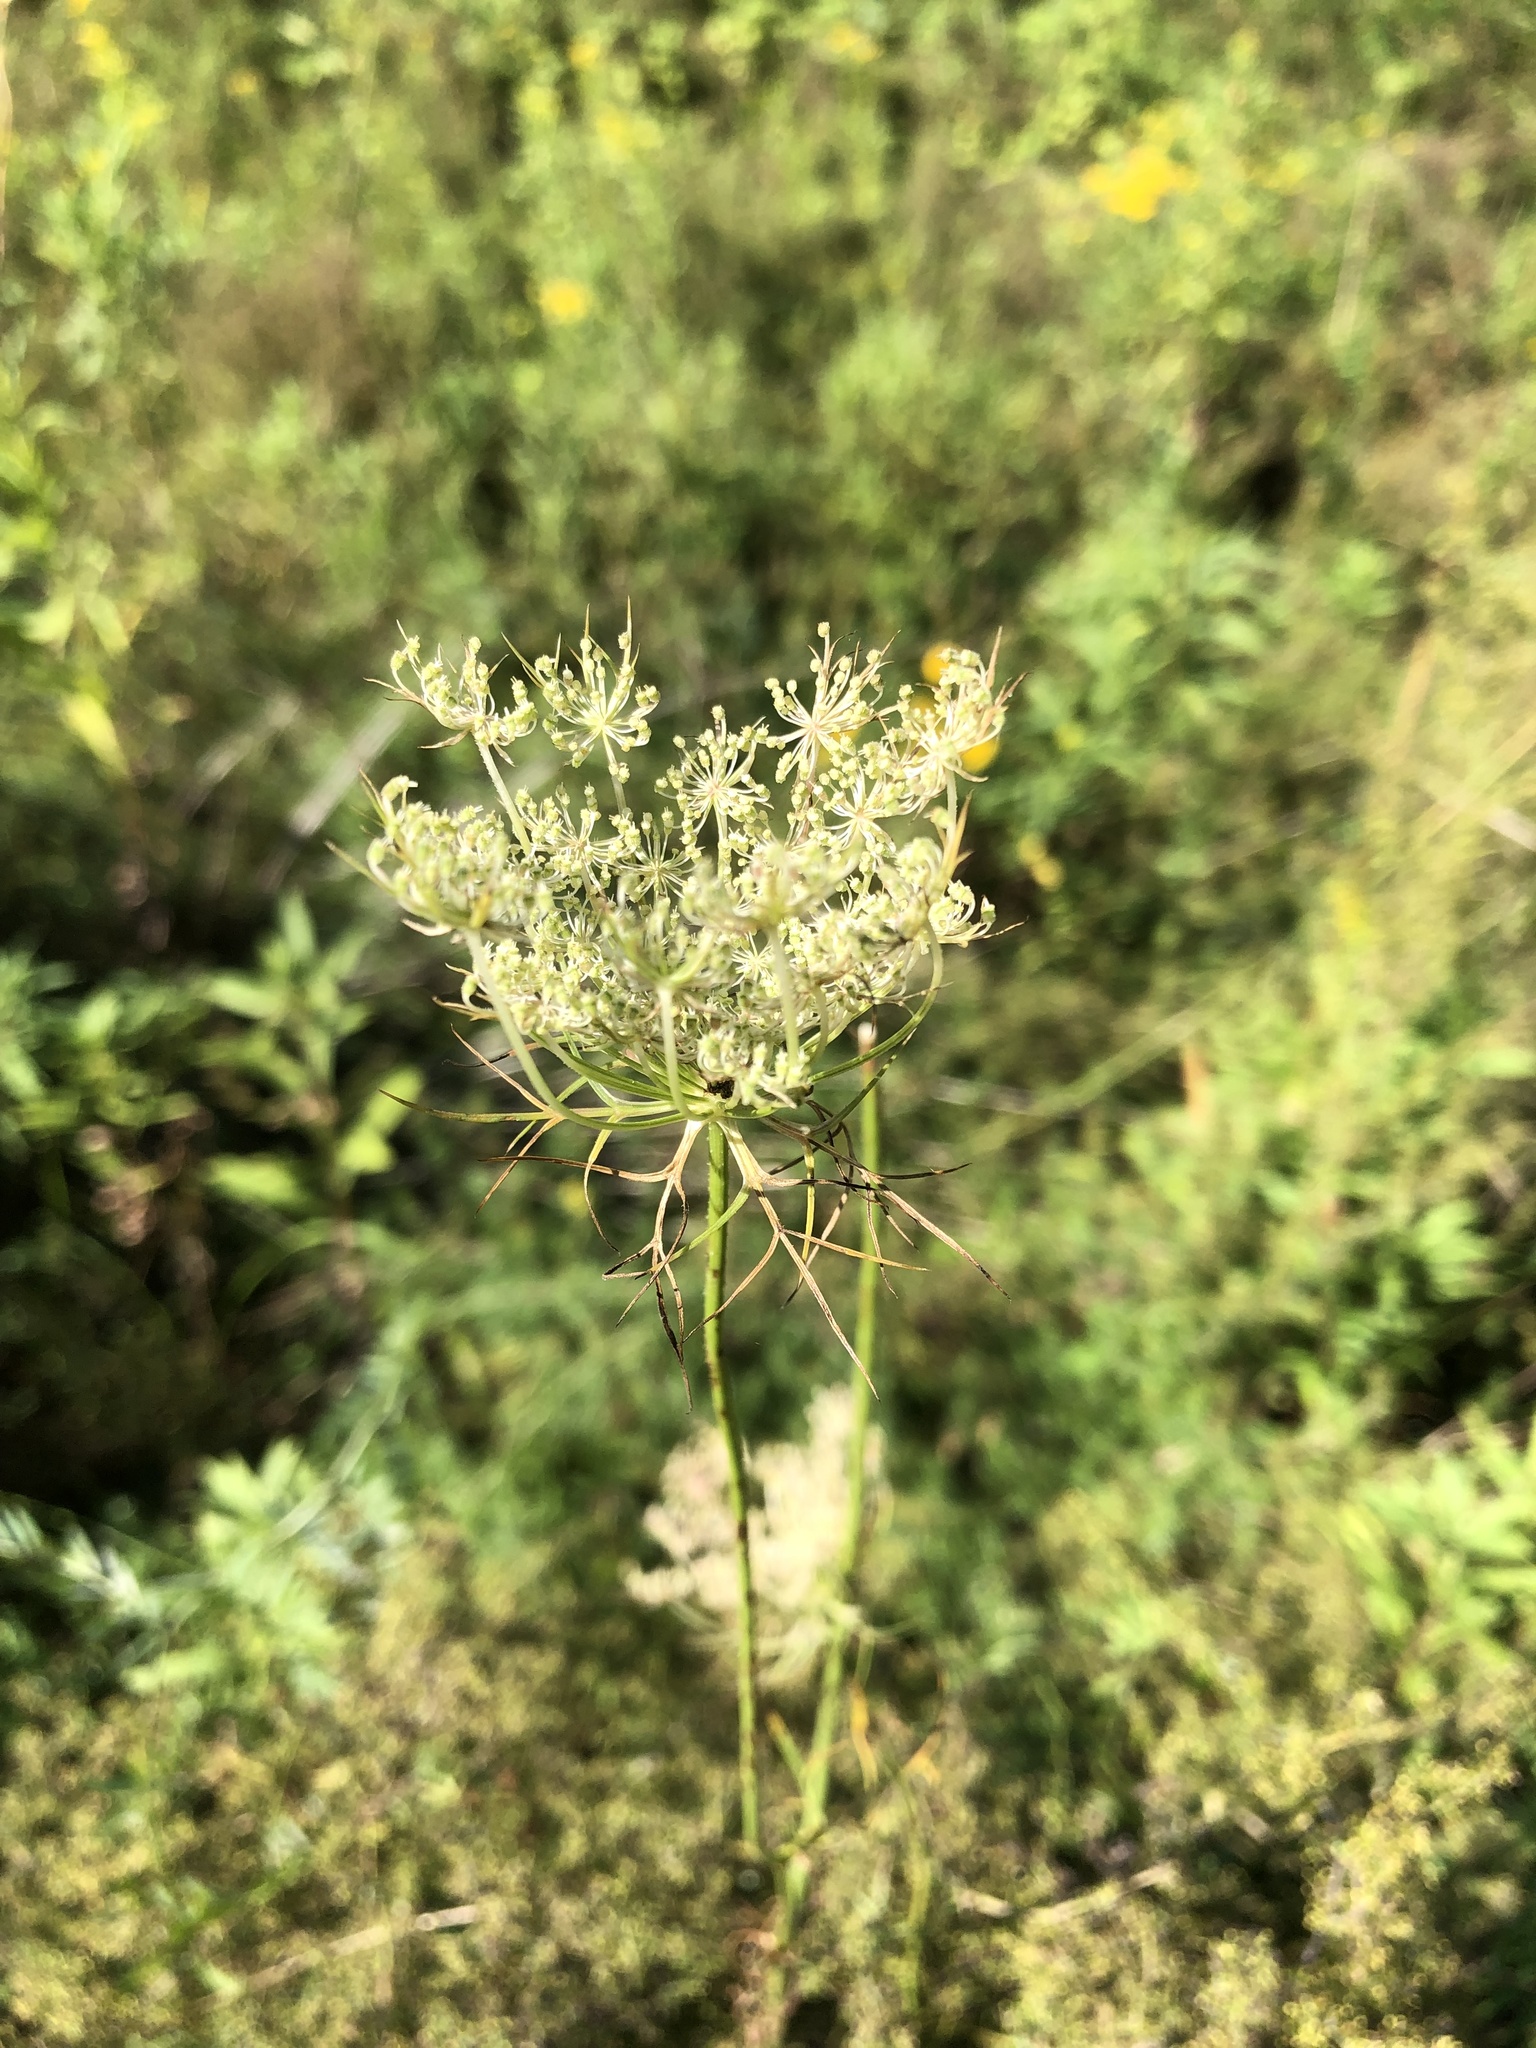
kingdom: Plantae
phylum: Tracheophyta
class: Magnoliopsida
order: Apiales
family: Apiaceae
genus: Daucus
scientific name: Daucus carota
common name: Wild carrot
